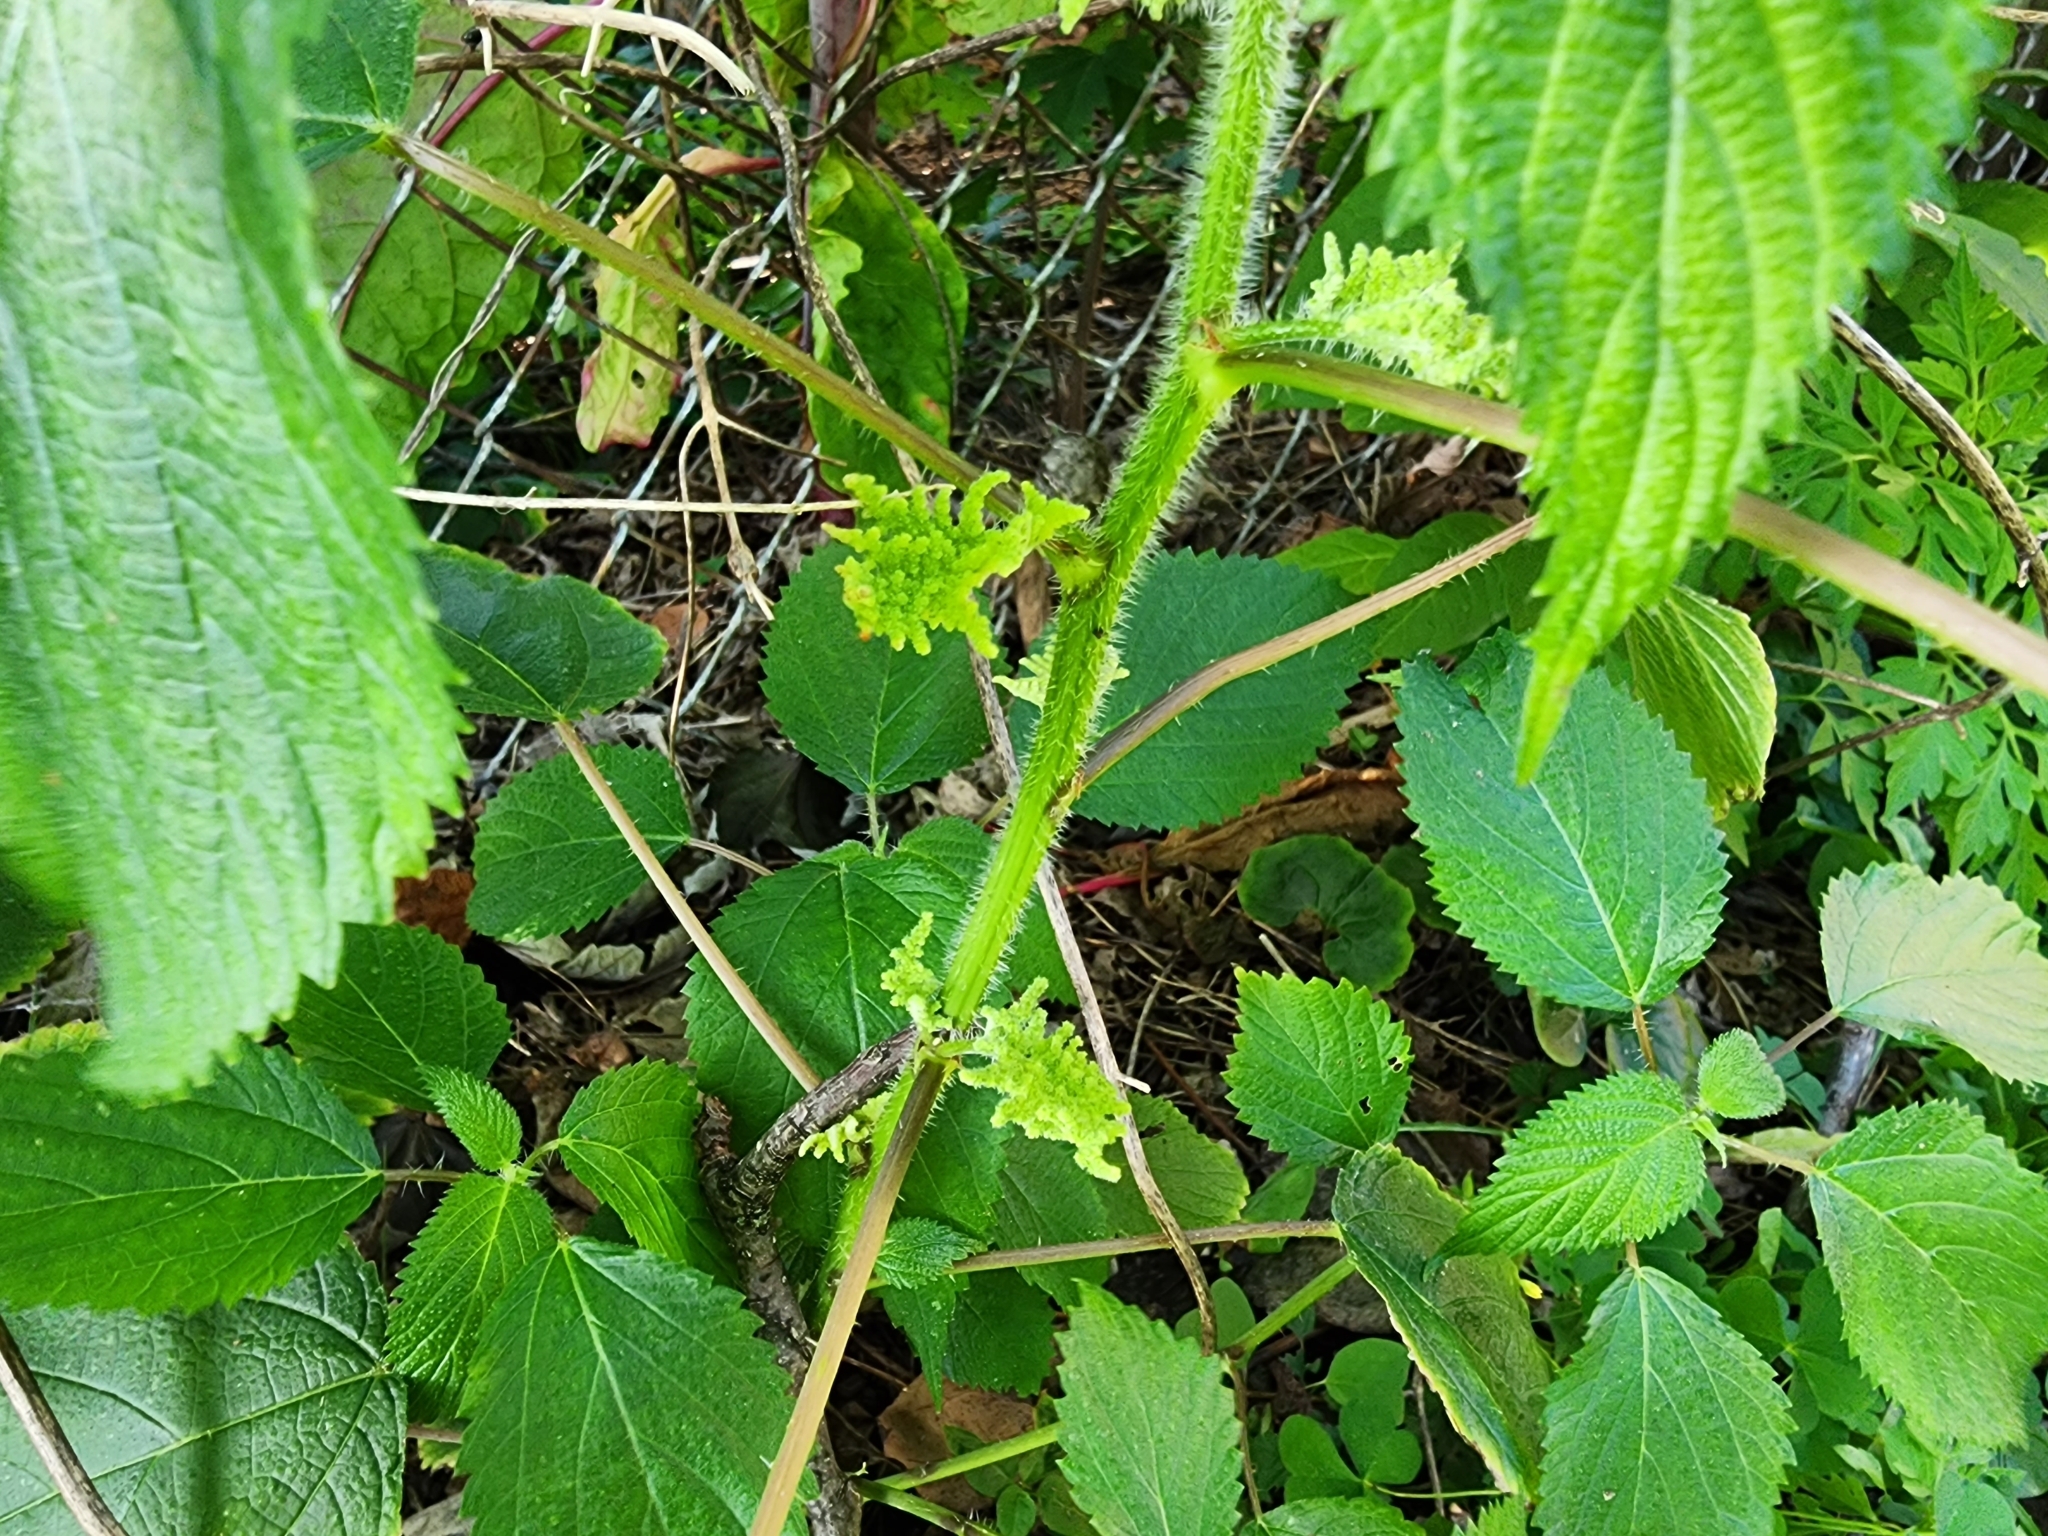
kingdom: Plantae
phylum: Tracheophyta
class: Magnoliopsida
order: Rosales
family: Urticaceae
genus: Laportea
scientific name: Laportea canadensis
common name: Canada nettle
